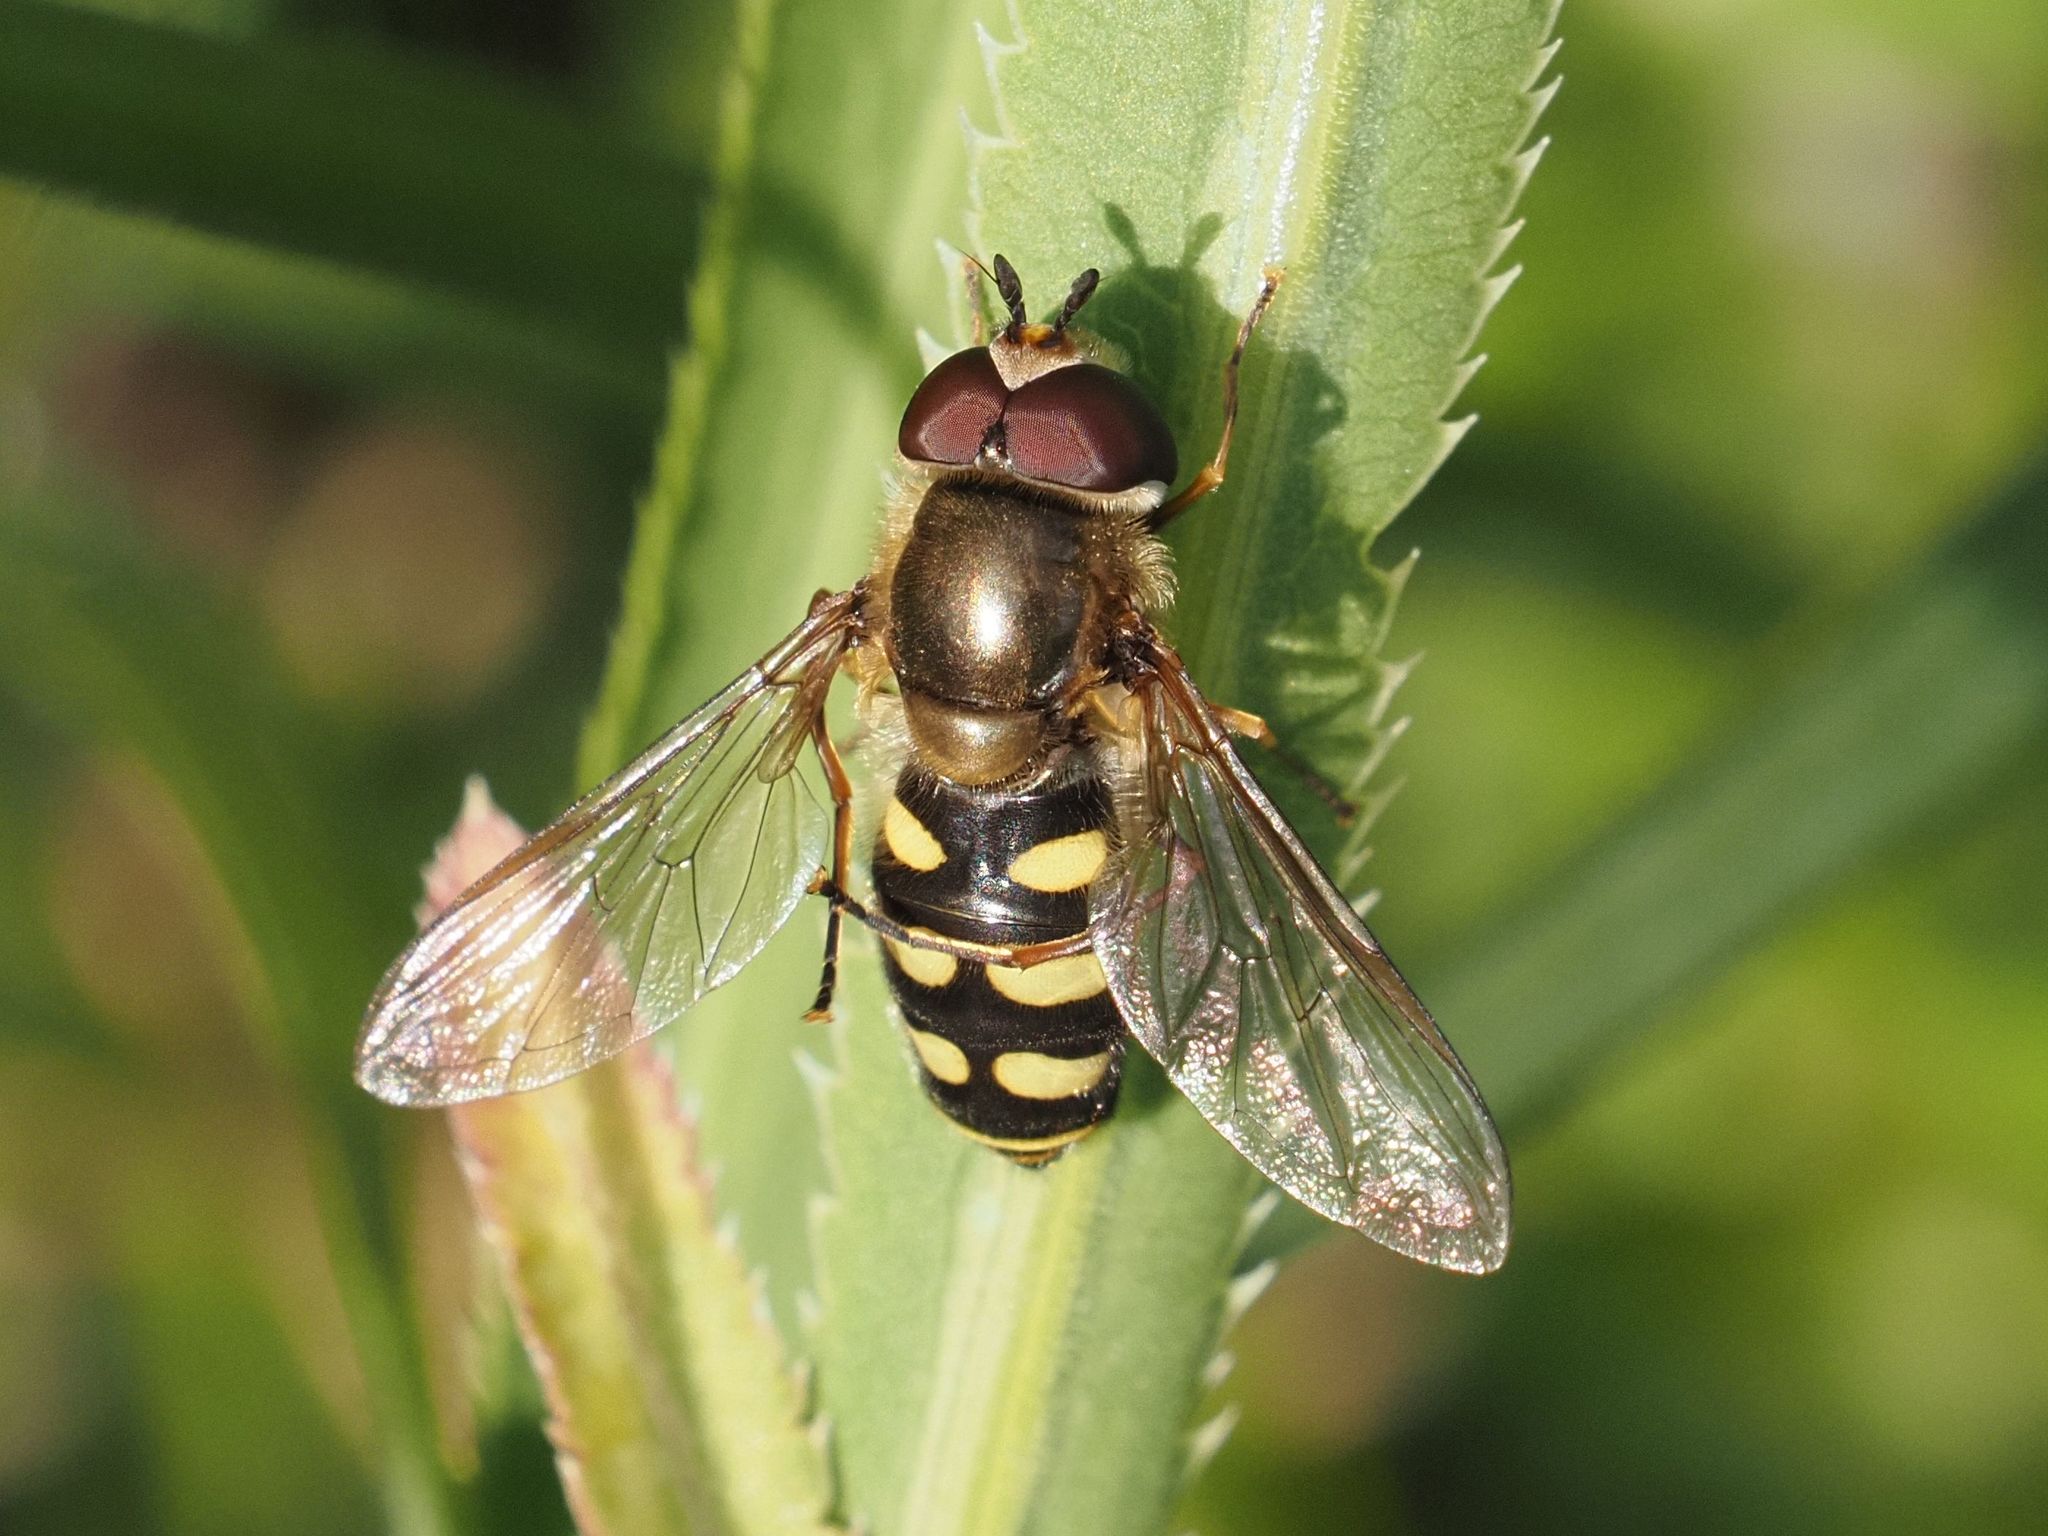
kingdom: Animalia
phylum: Arthropoda
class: Insecta
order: Diptera
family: Syrphidae
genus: Eupeodes
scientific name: Eupeodes luniger
